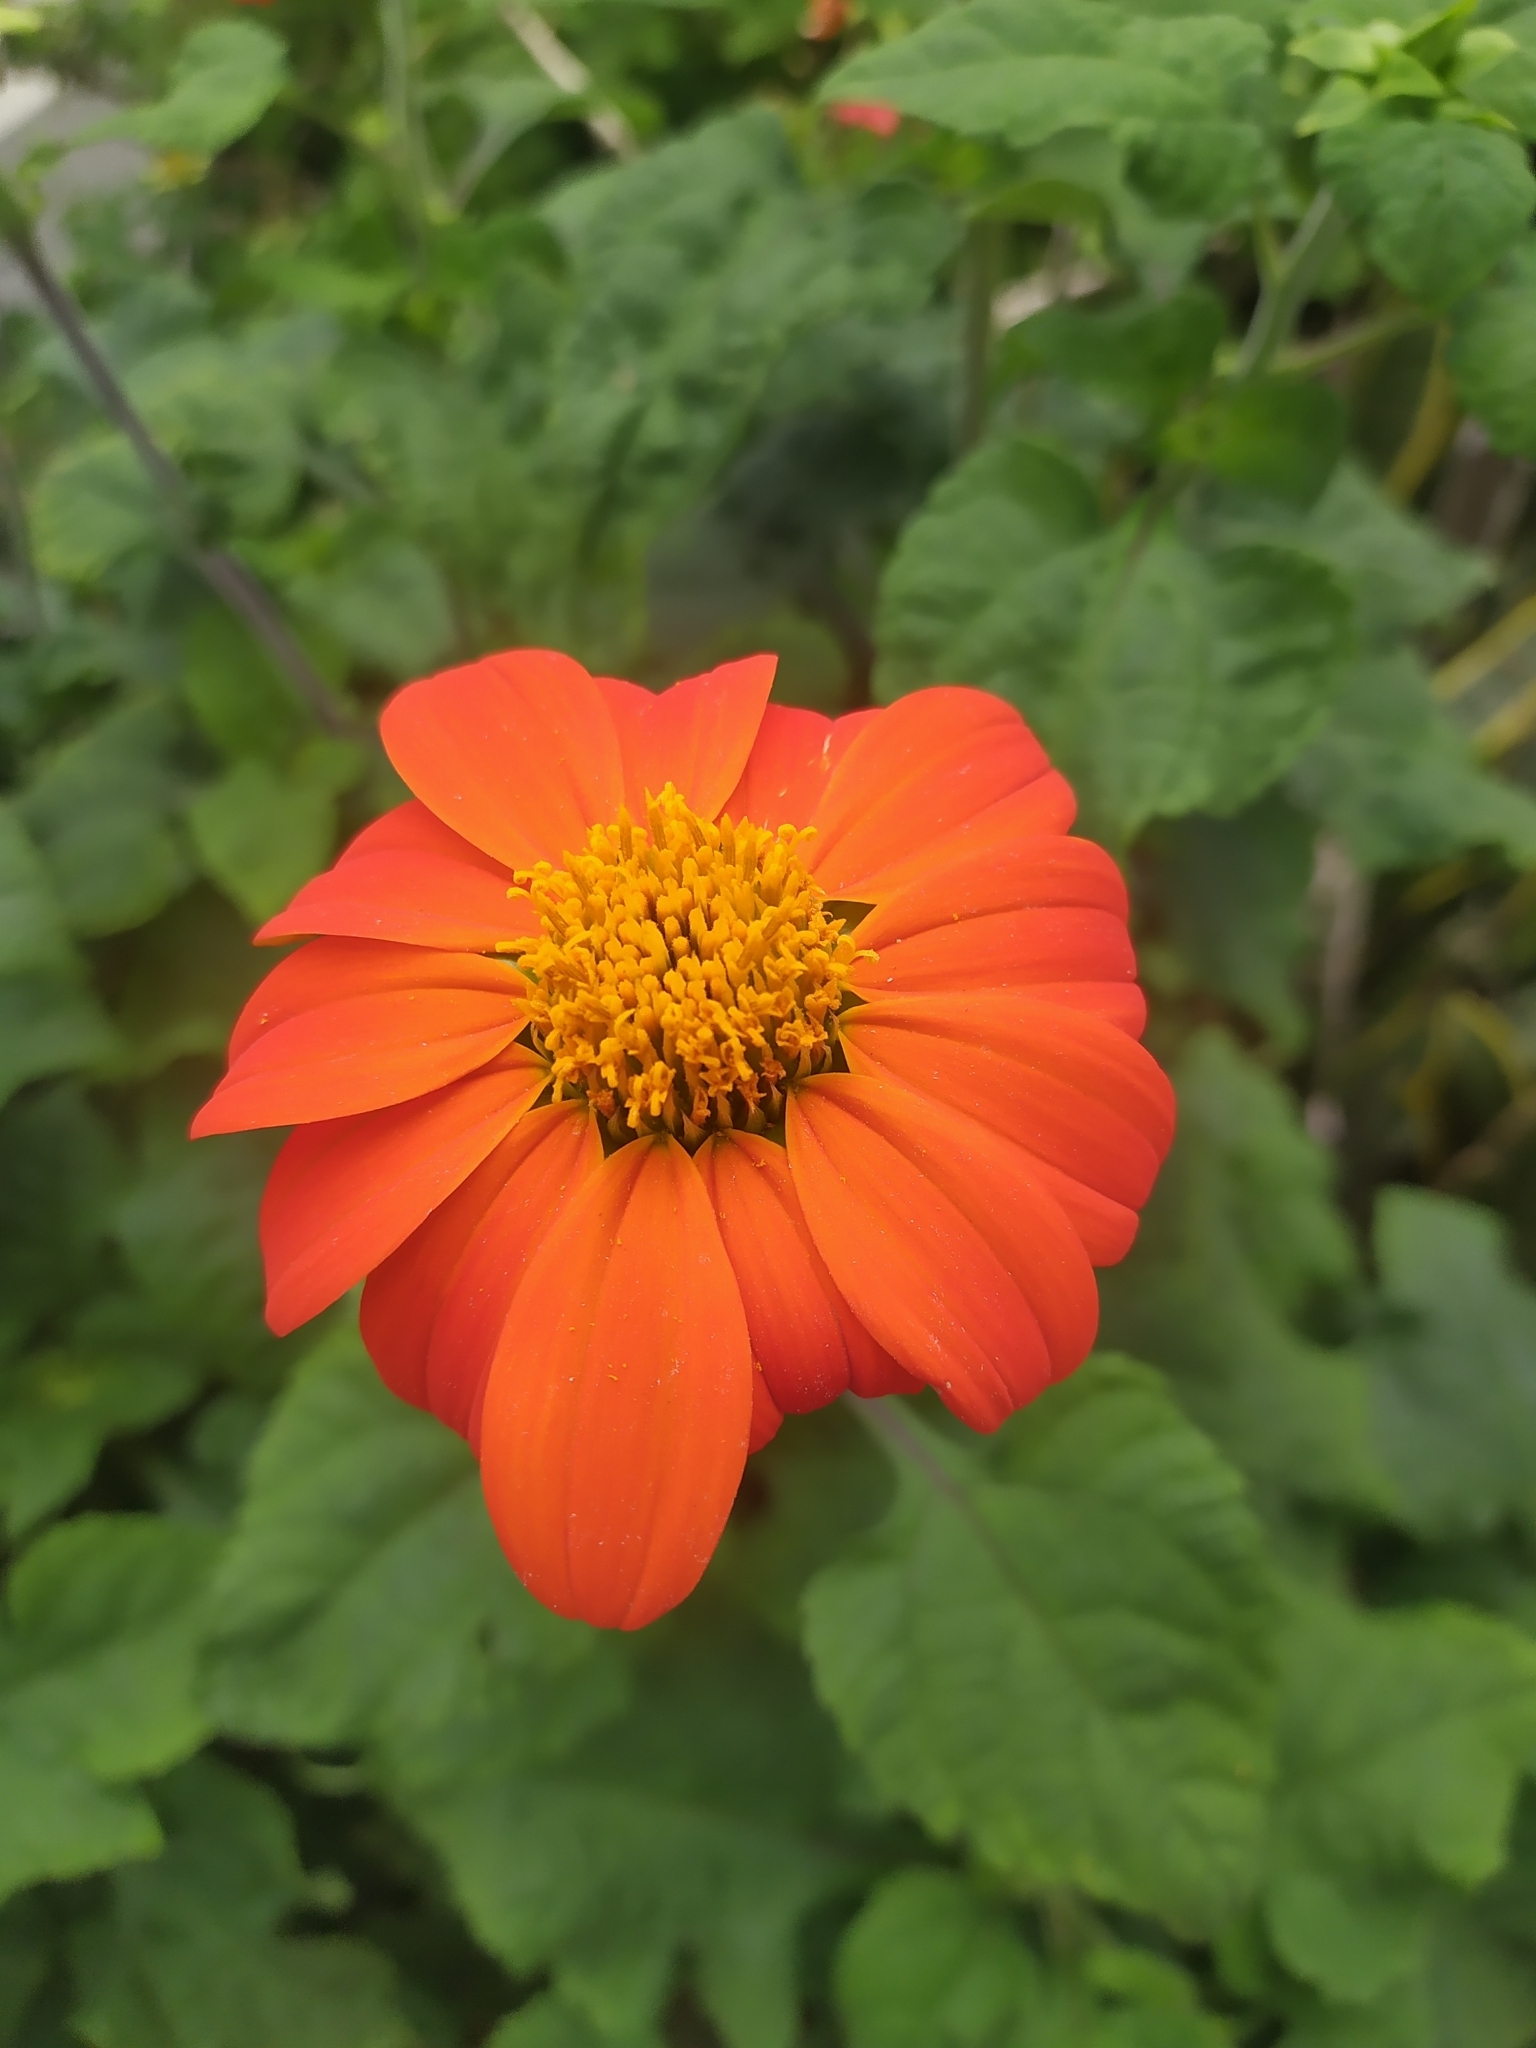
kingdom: Plantae
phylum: Tracheophyta
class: Magnoliopsida
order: Asterales
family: Asteraceae
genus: Tithonia
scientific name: Tithonia rotundifolia
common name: Sunflower
